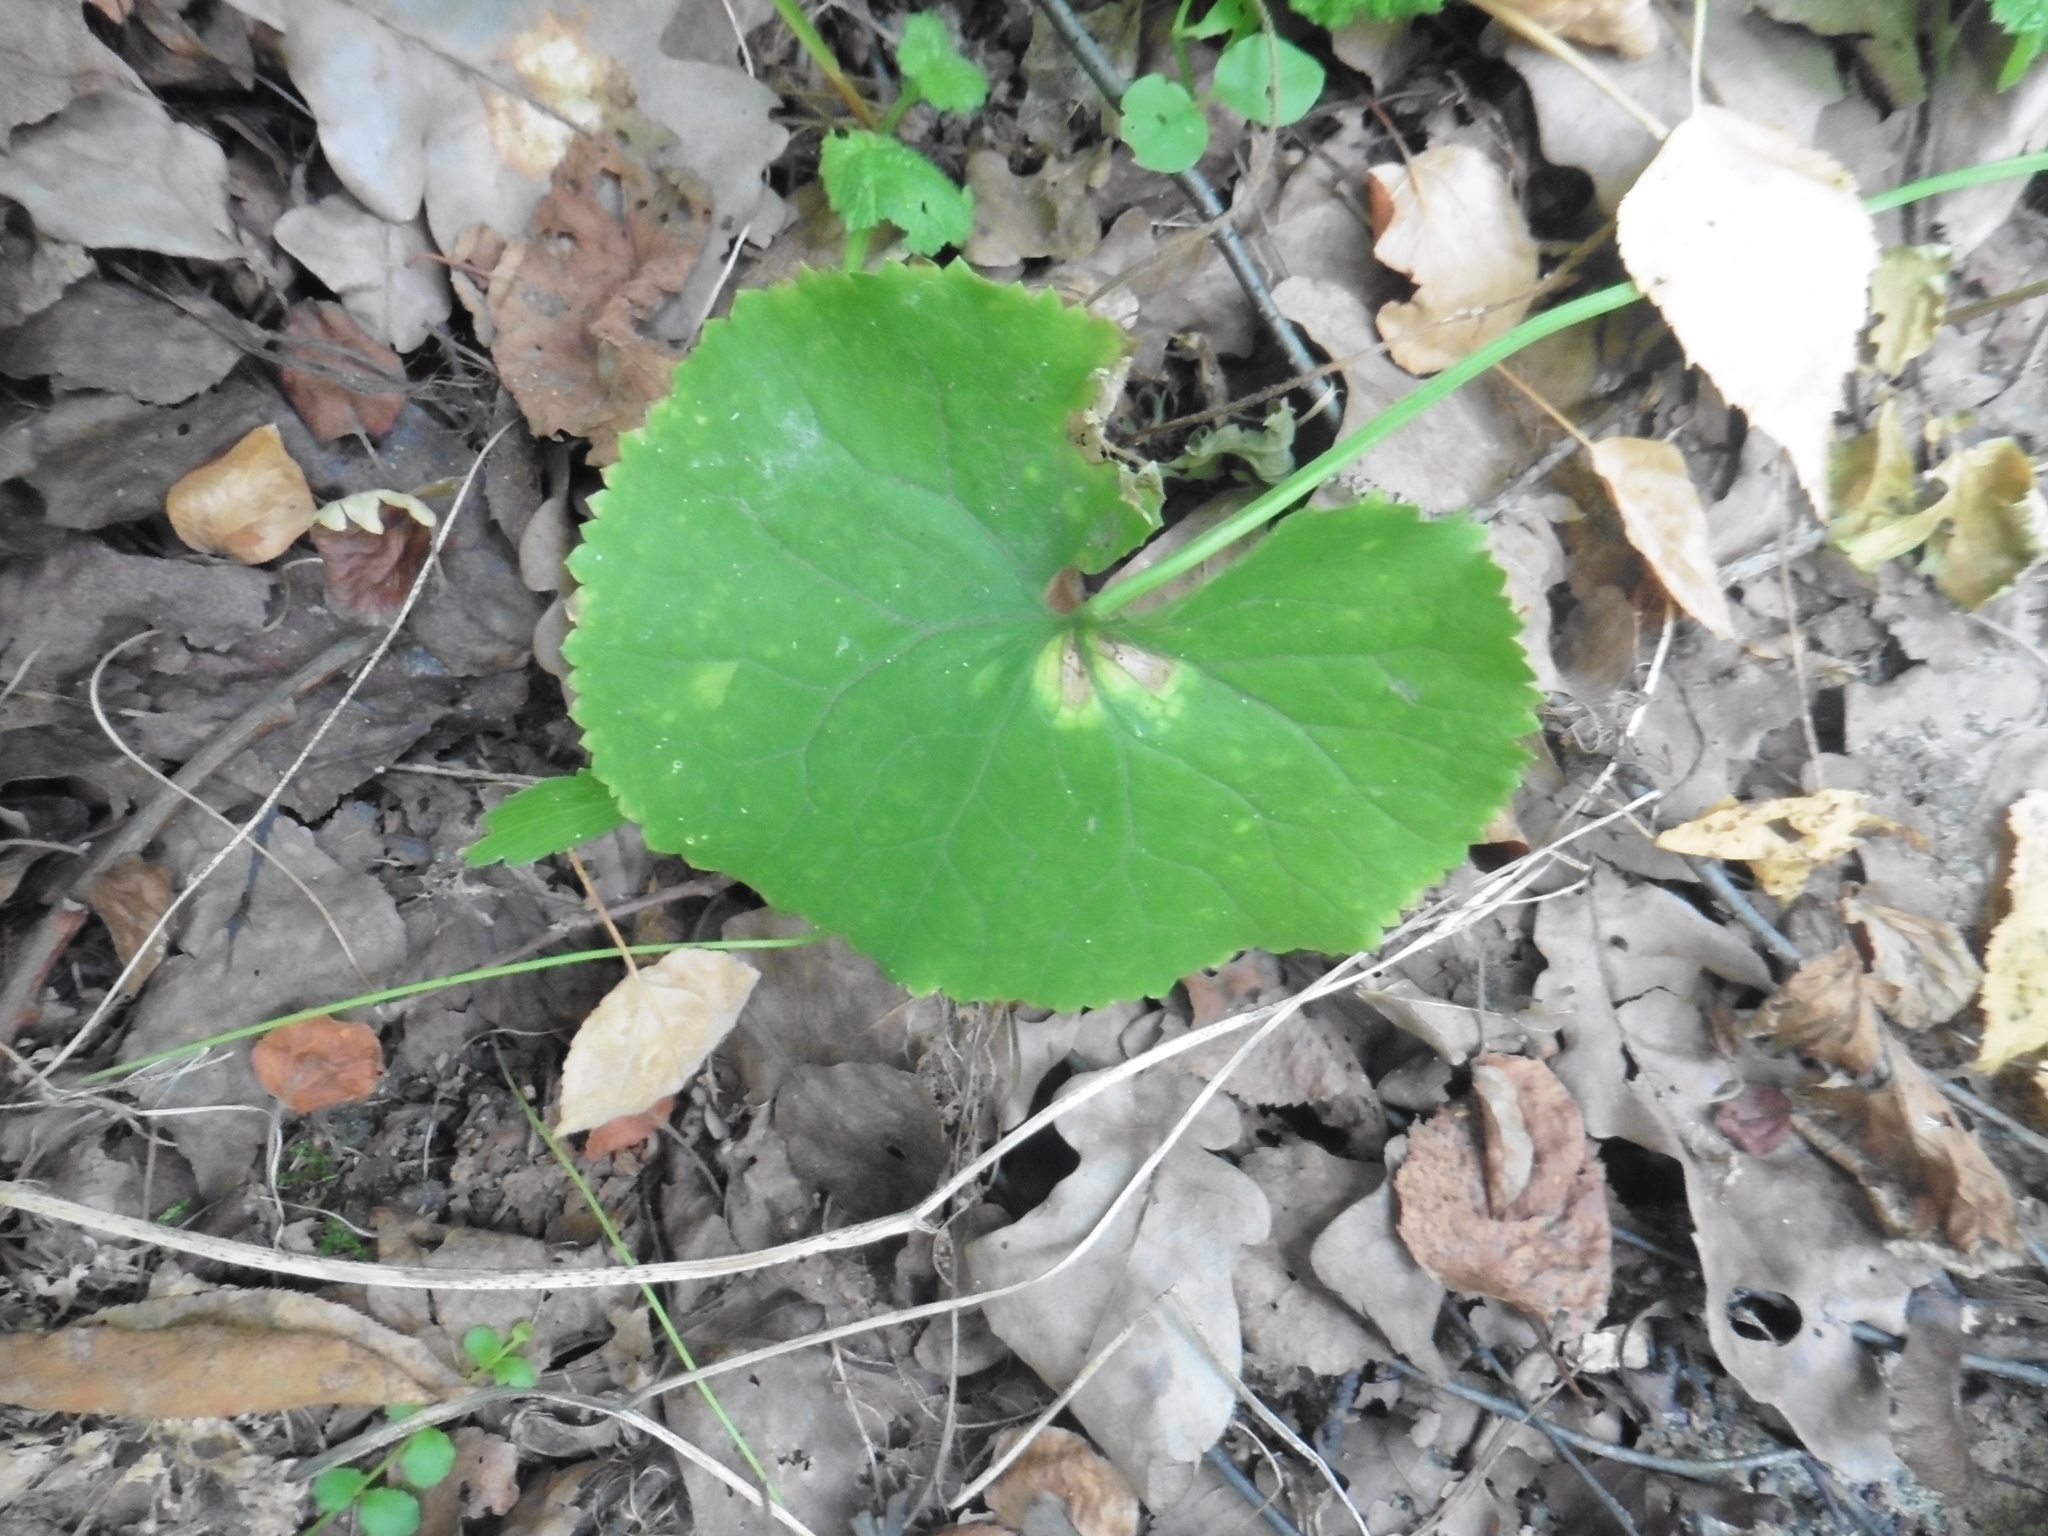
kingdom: Plantae
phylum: Tracheophyta
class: Magnoliopsida
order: Ranunculales
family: Ranunculaceae
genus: Ranunculus
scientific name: Ranunculus cassubicus
